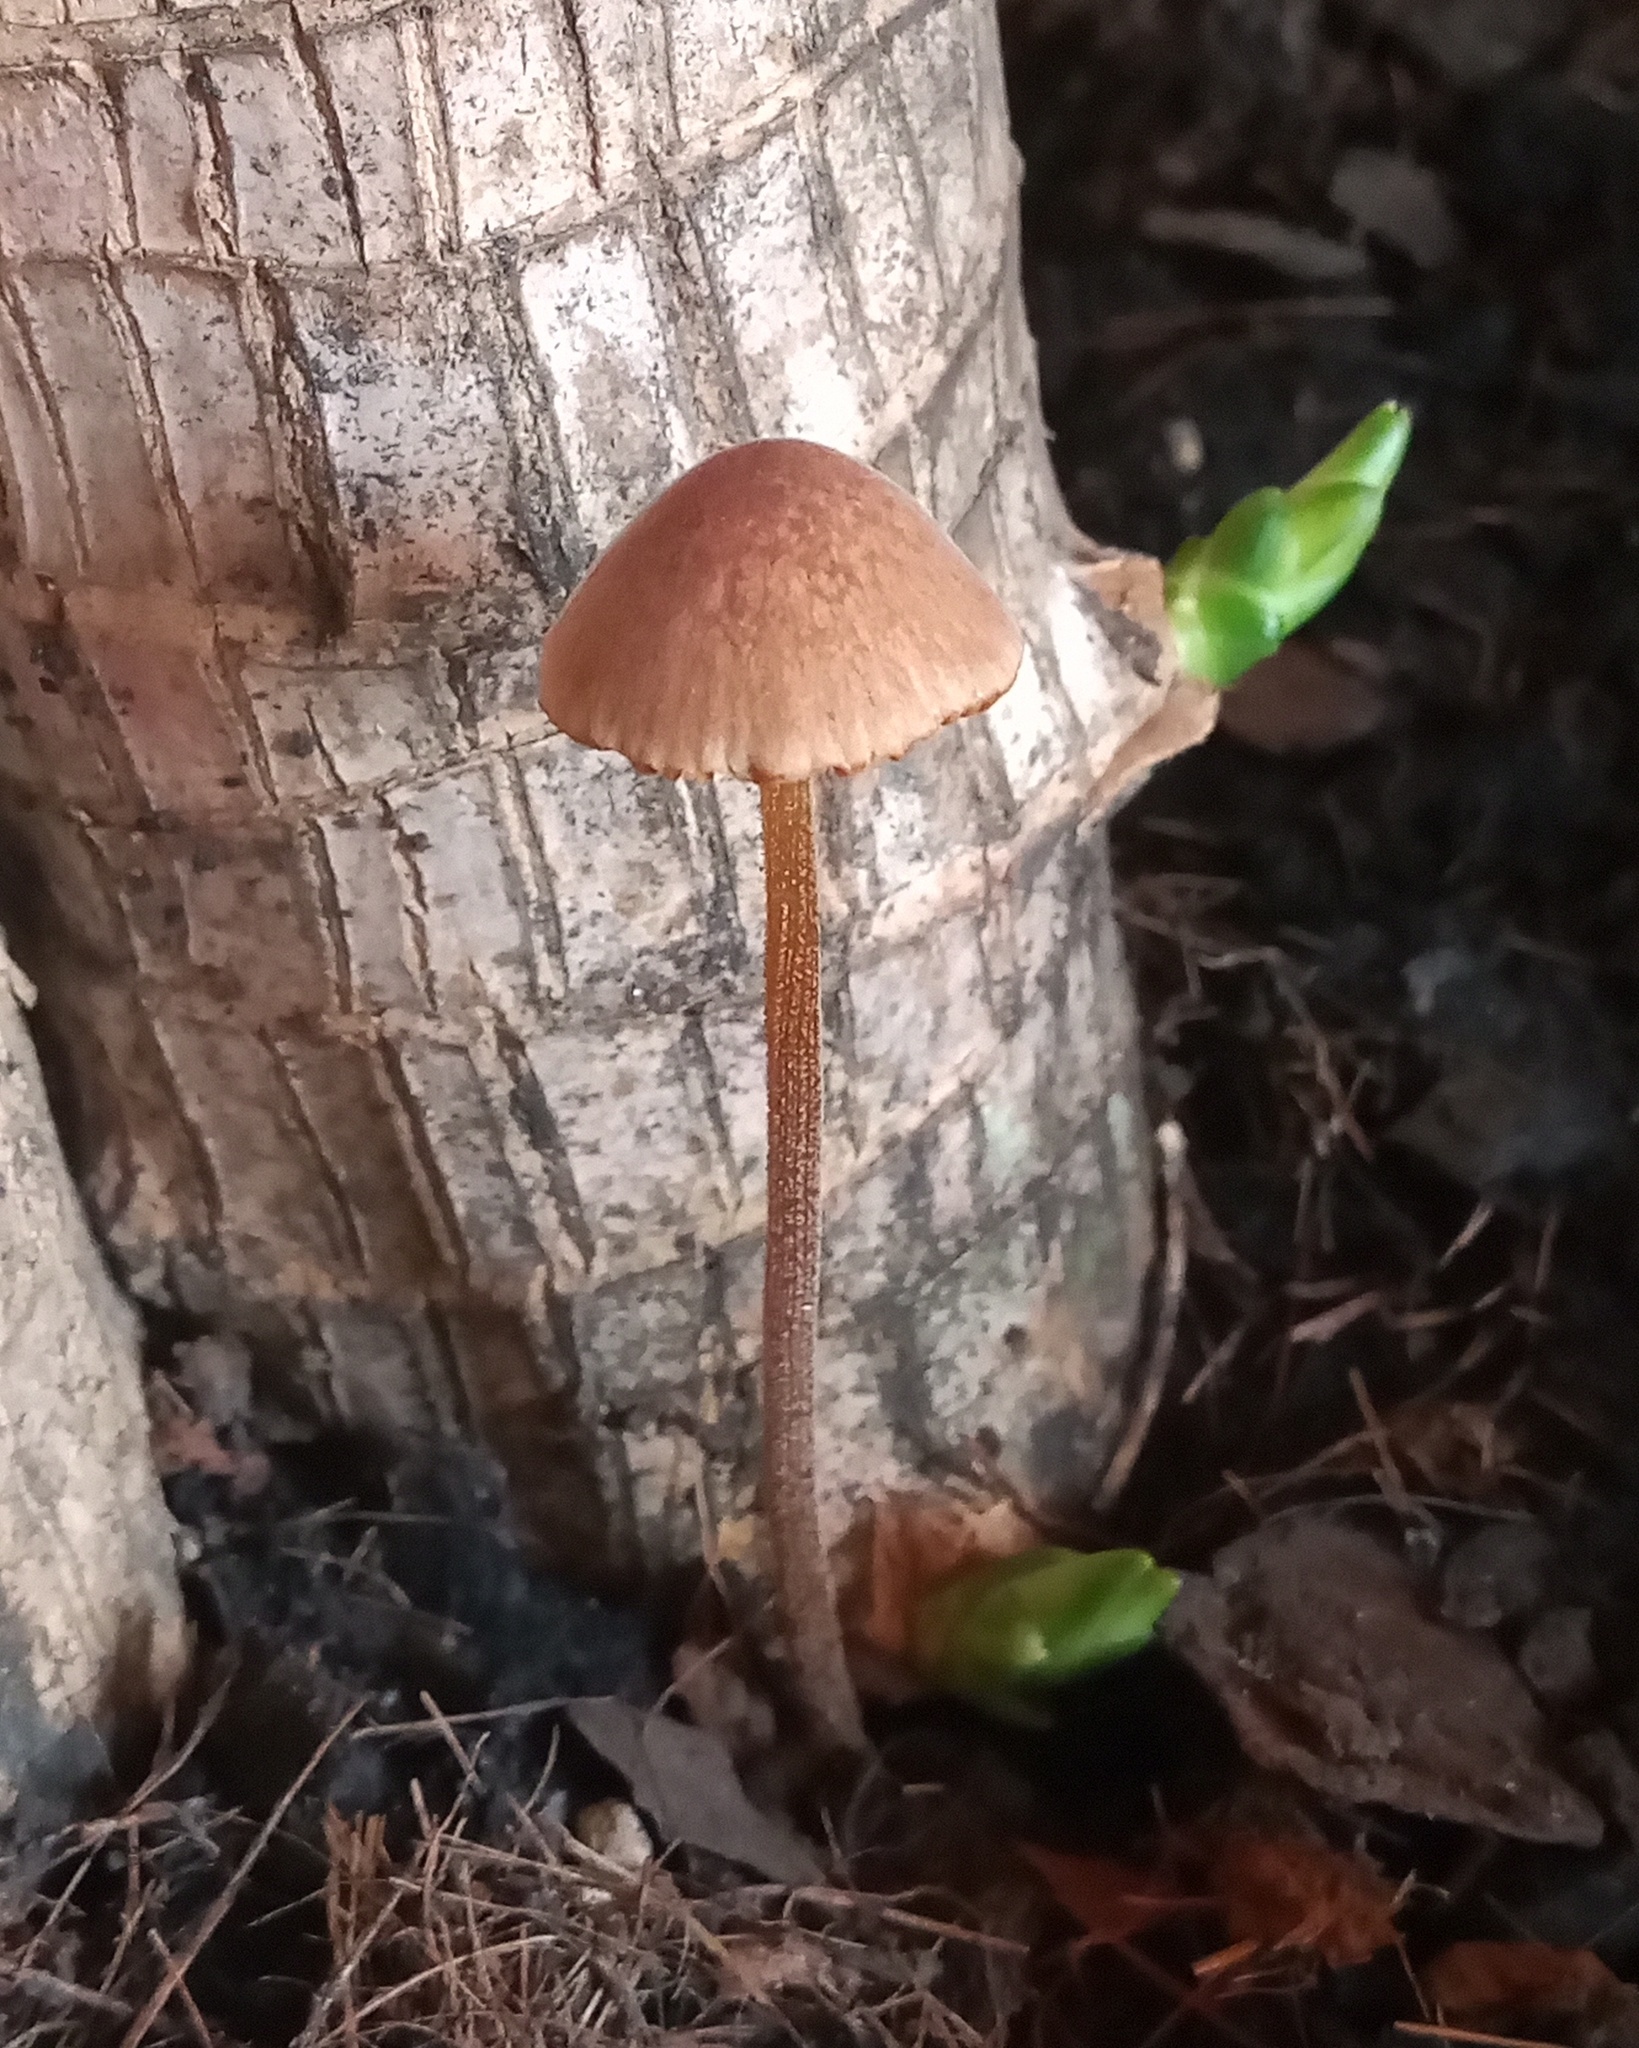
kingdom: Fungi
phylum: Basidiomycota
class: Agaricomycetes
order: Agaricales
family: Bolbitiaceae
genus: Conocybe
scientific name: Conocybe tenera
